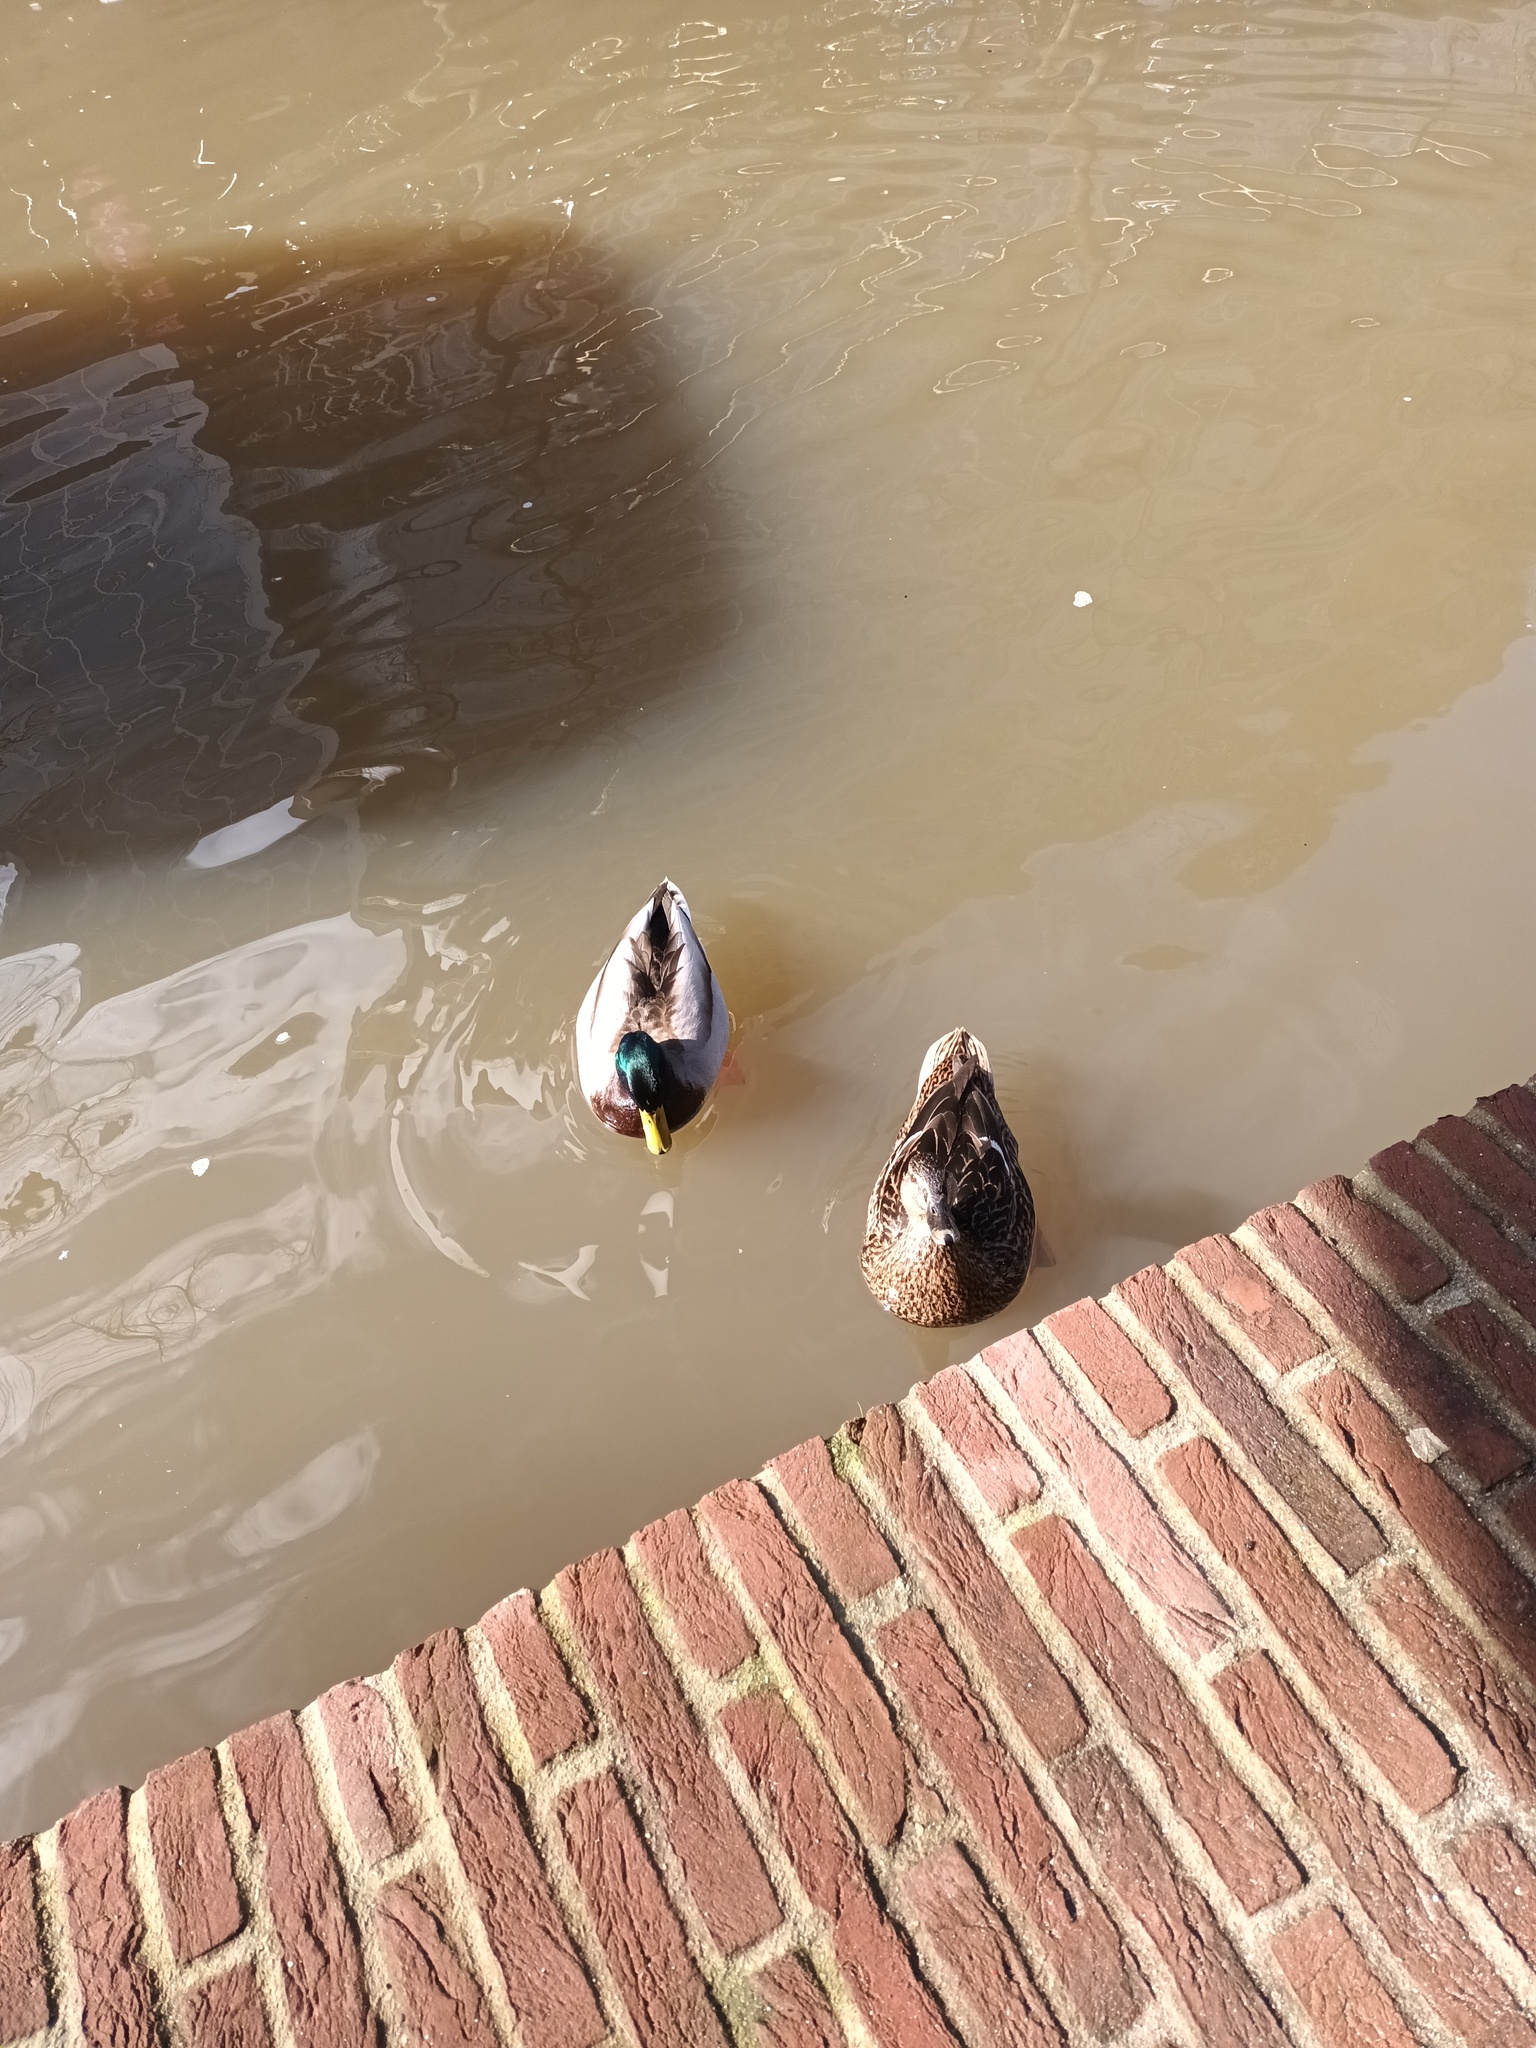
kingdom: Animalia
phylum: Chordata
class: Aves
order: Anseriformes
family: Anatidae
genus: Anas
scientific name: Anas platyrhynchos
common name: Mallard
